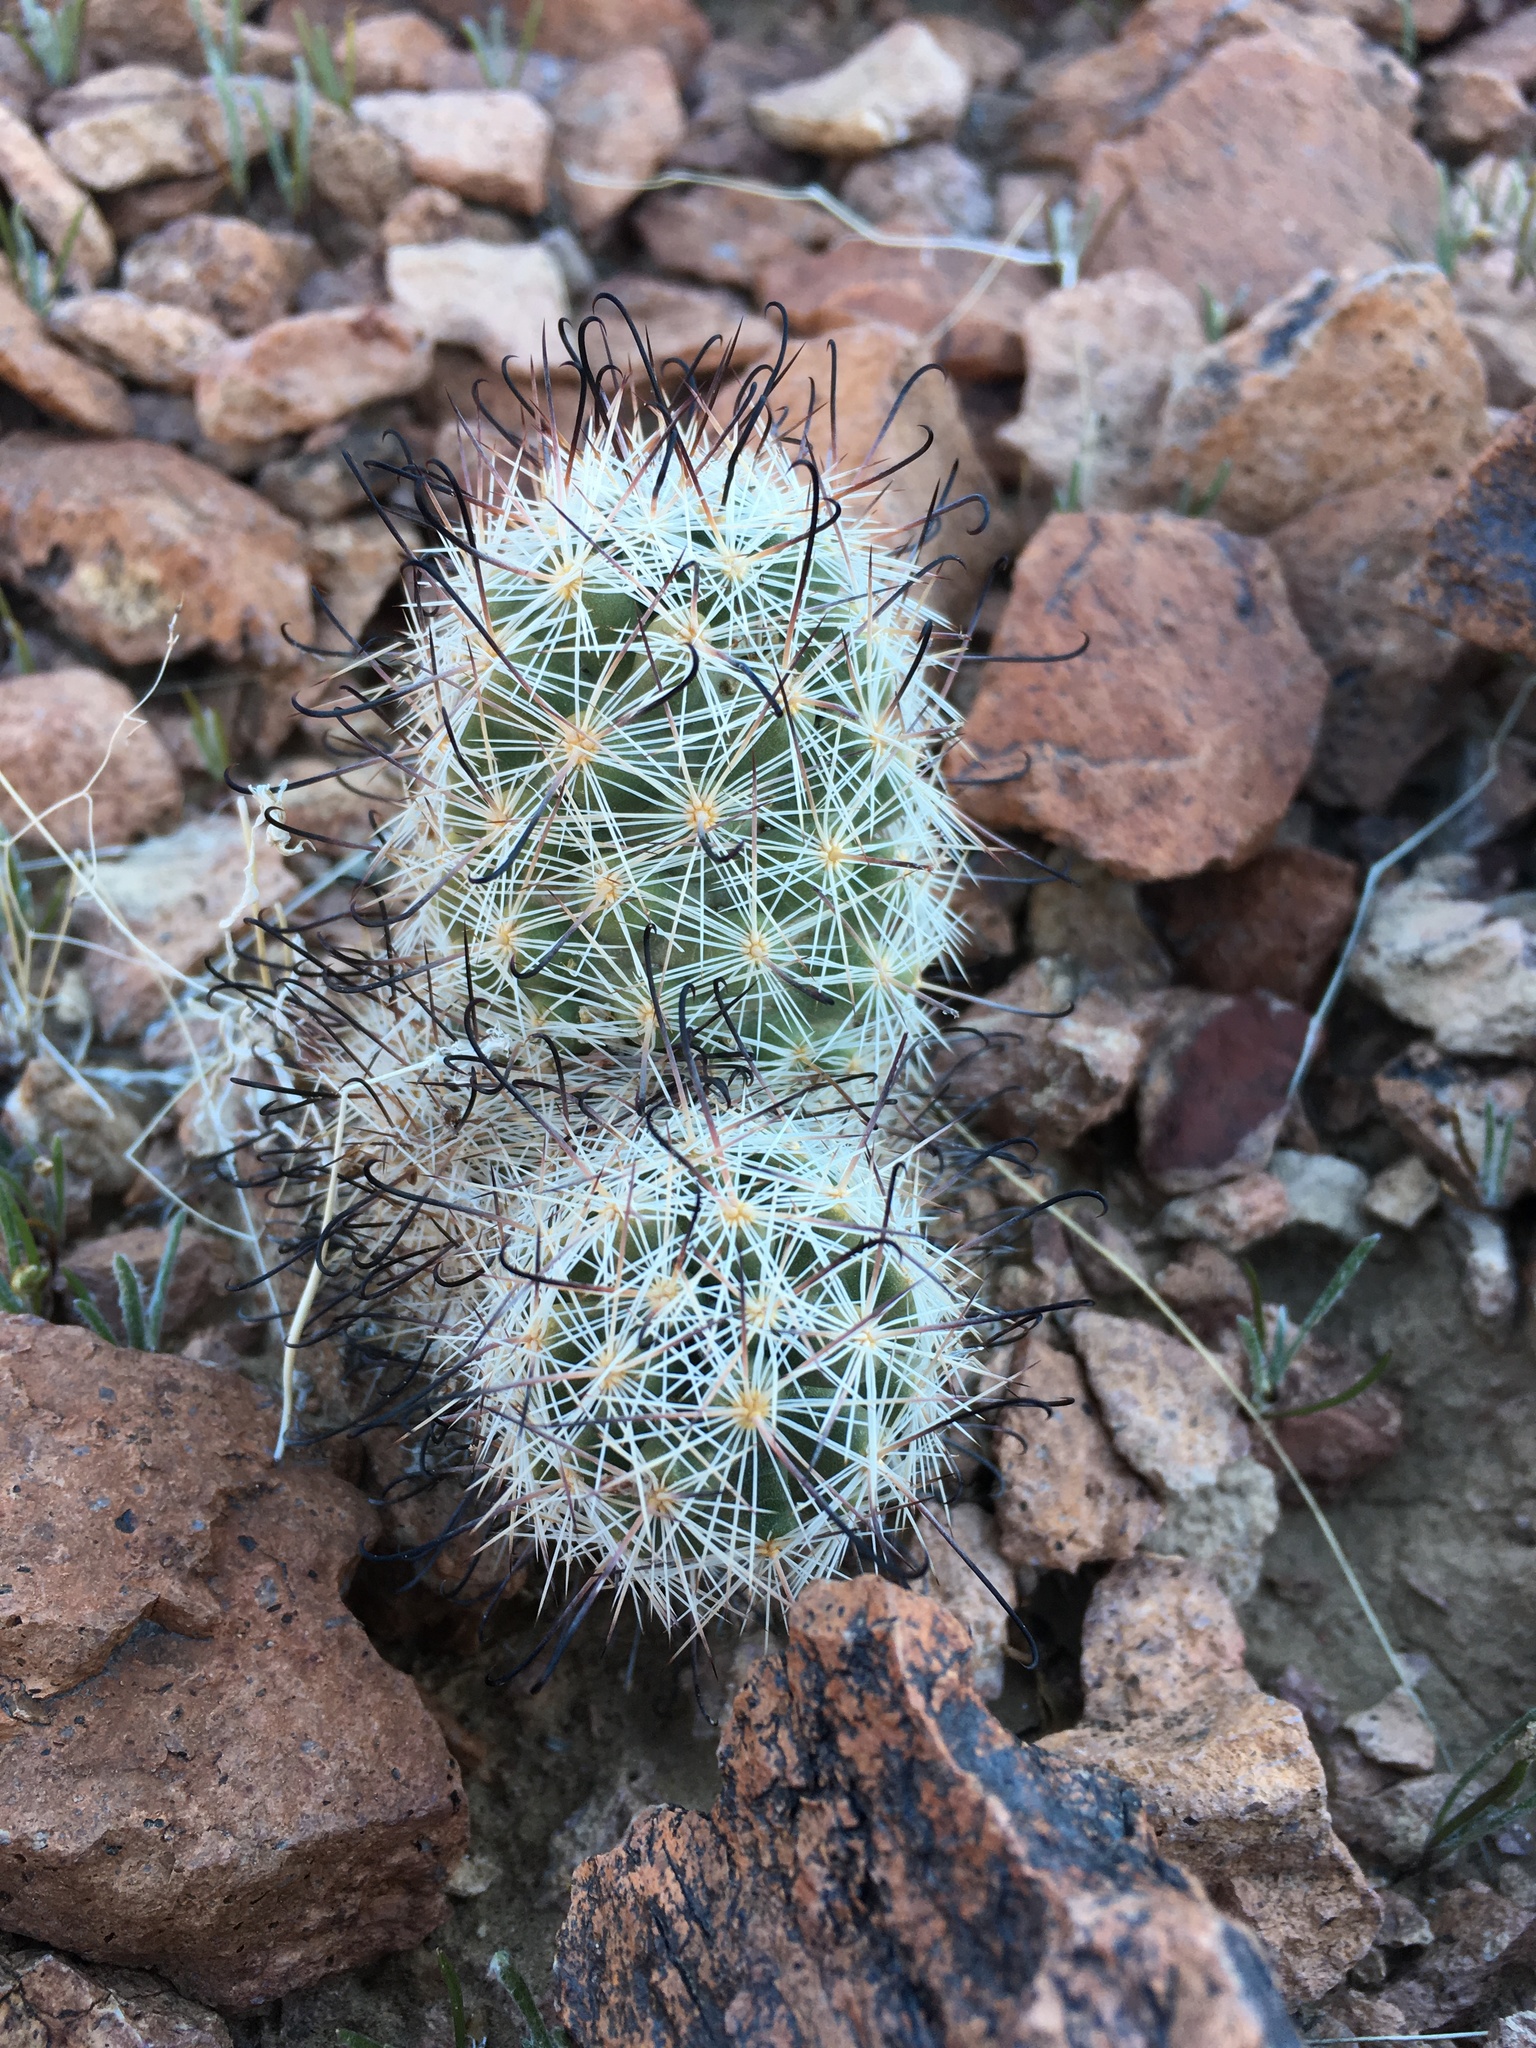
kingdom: Plantae
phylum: Tracheophyta
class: Magnoliopsida
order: Caryophyllales
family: Cactaceae
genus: Cochemiea
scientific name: Cochemiea tetrancistra
